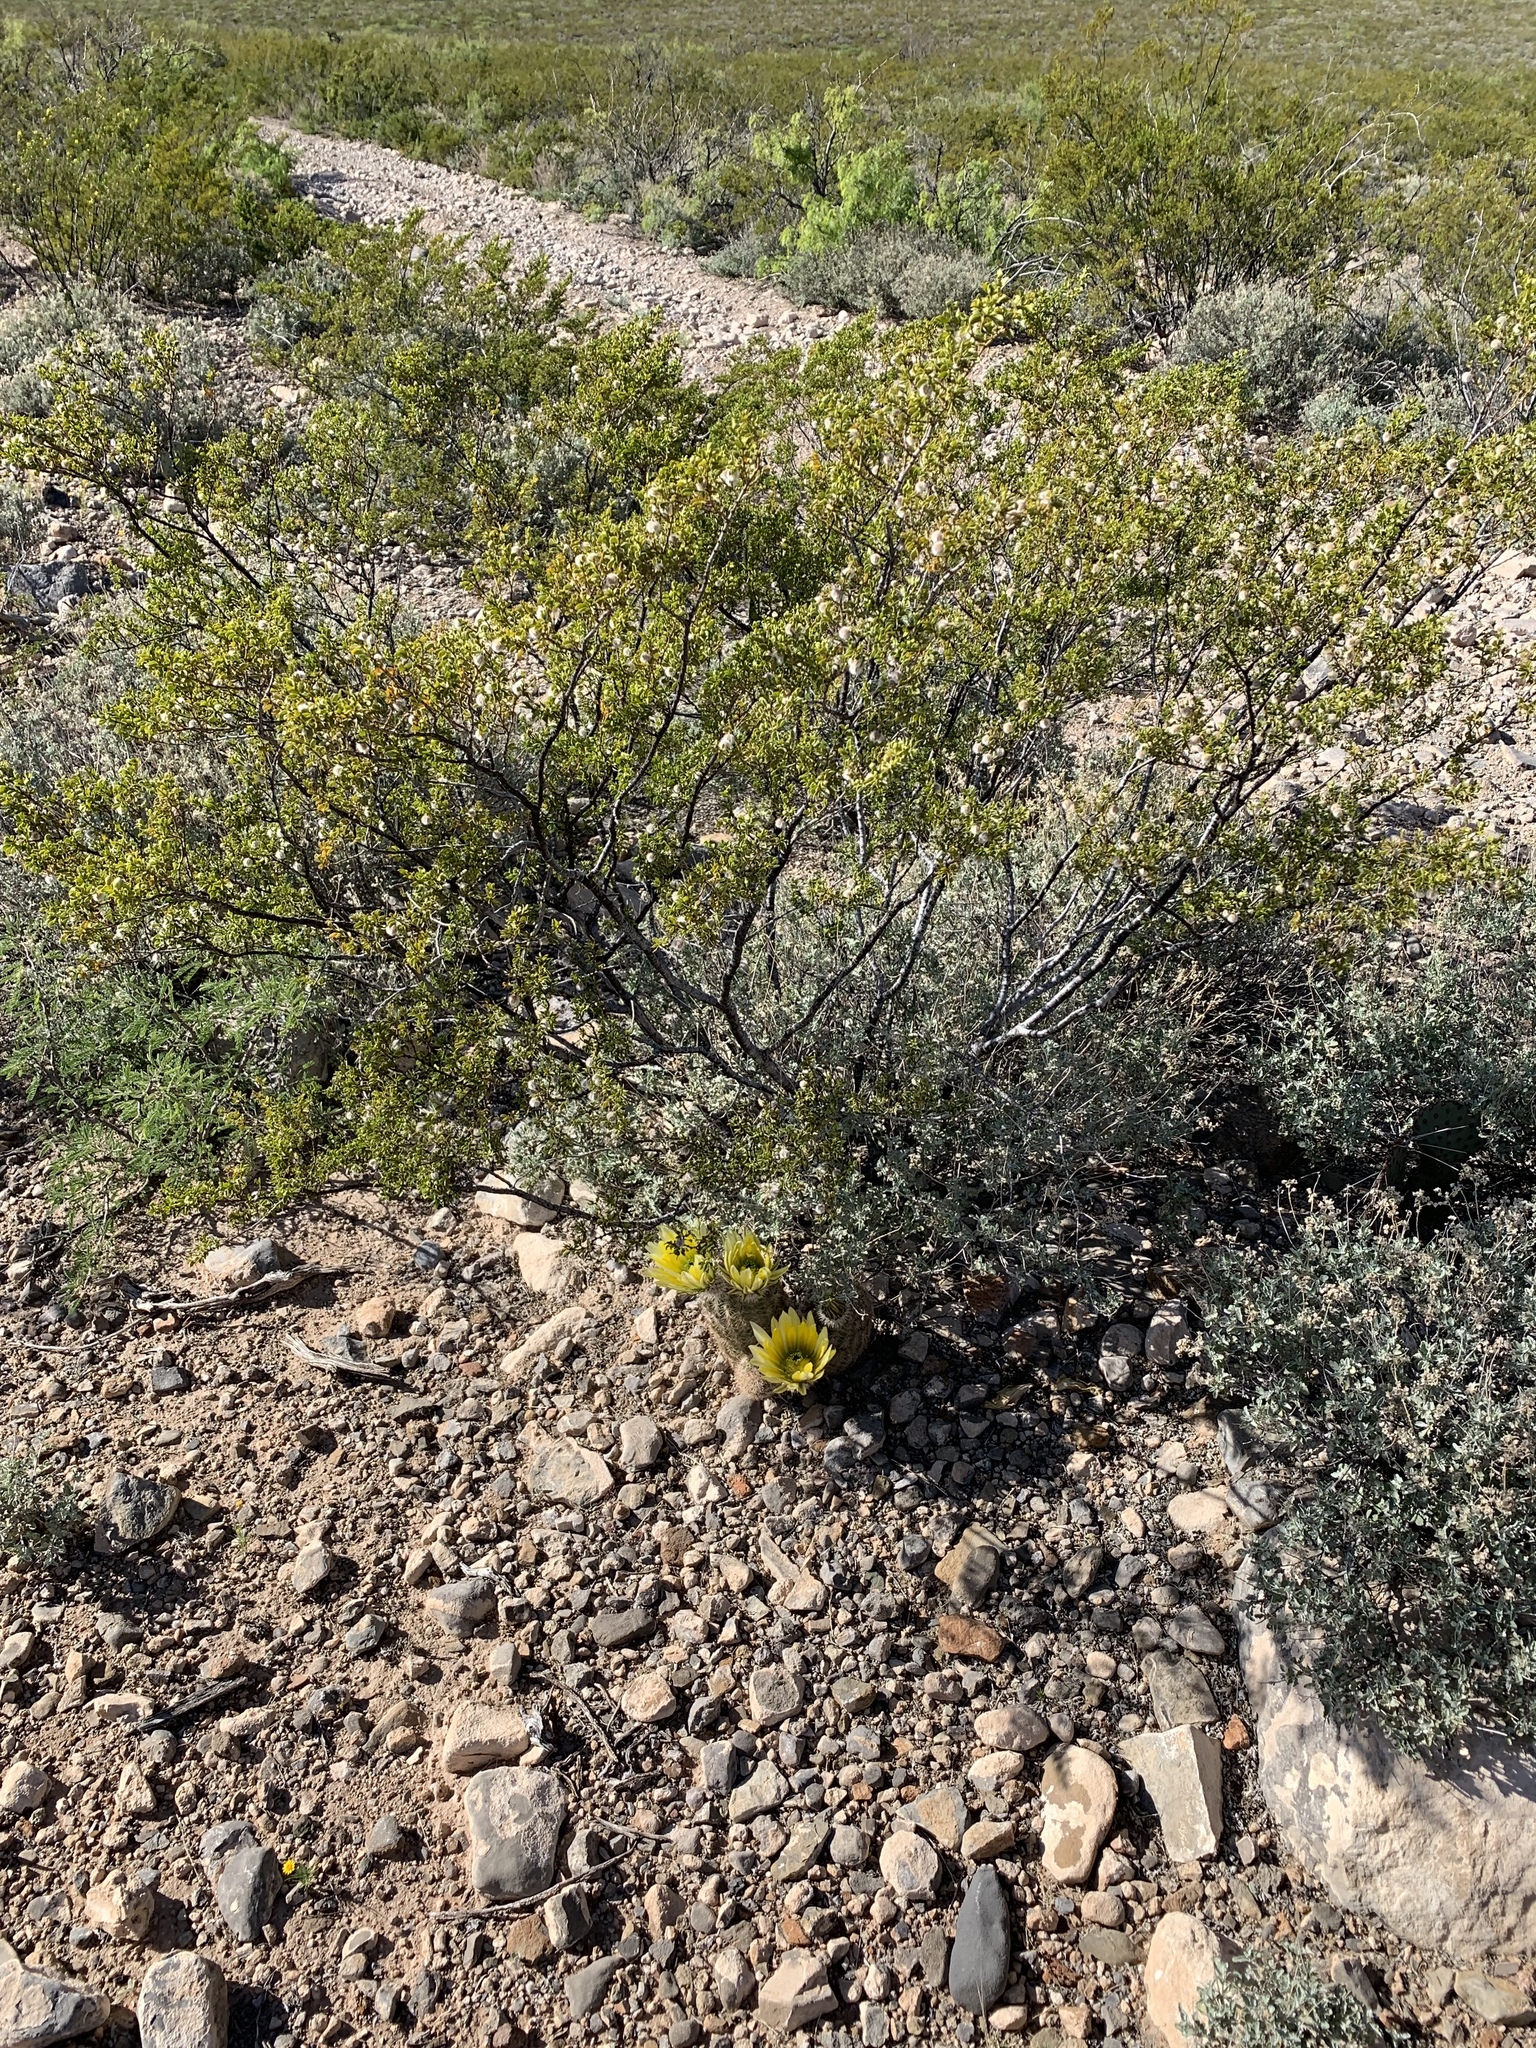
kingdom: Plantae
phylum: Tracheophyta
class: Magnoliopsida
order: Zygophyllales
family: Zygophyllaceae
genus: Larrea
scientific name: Larrea tridentata
